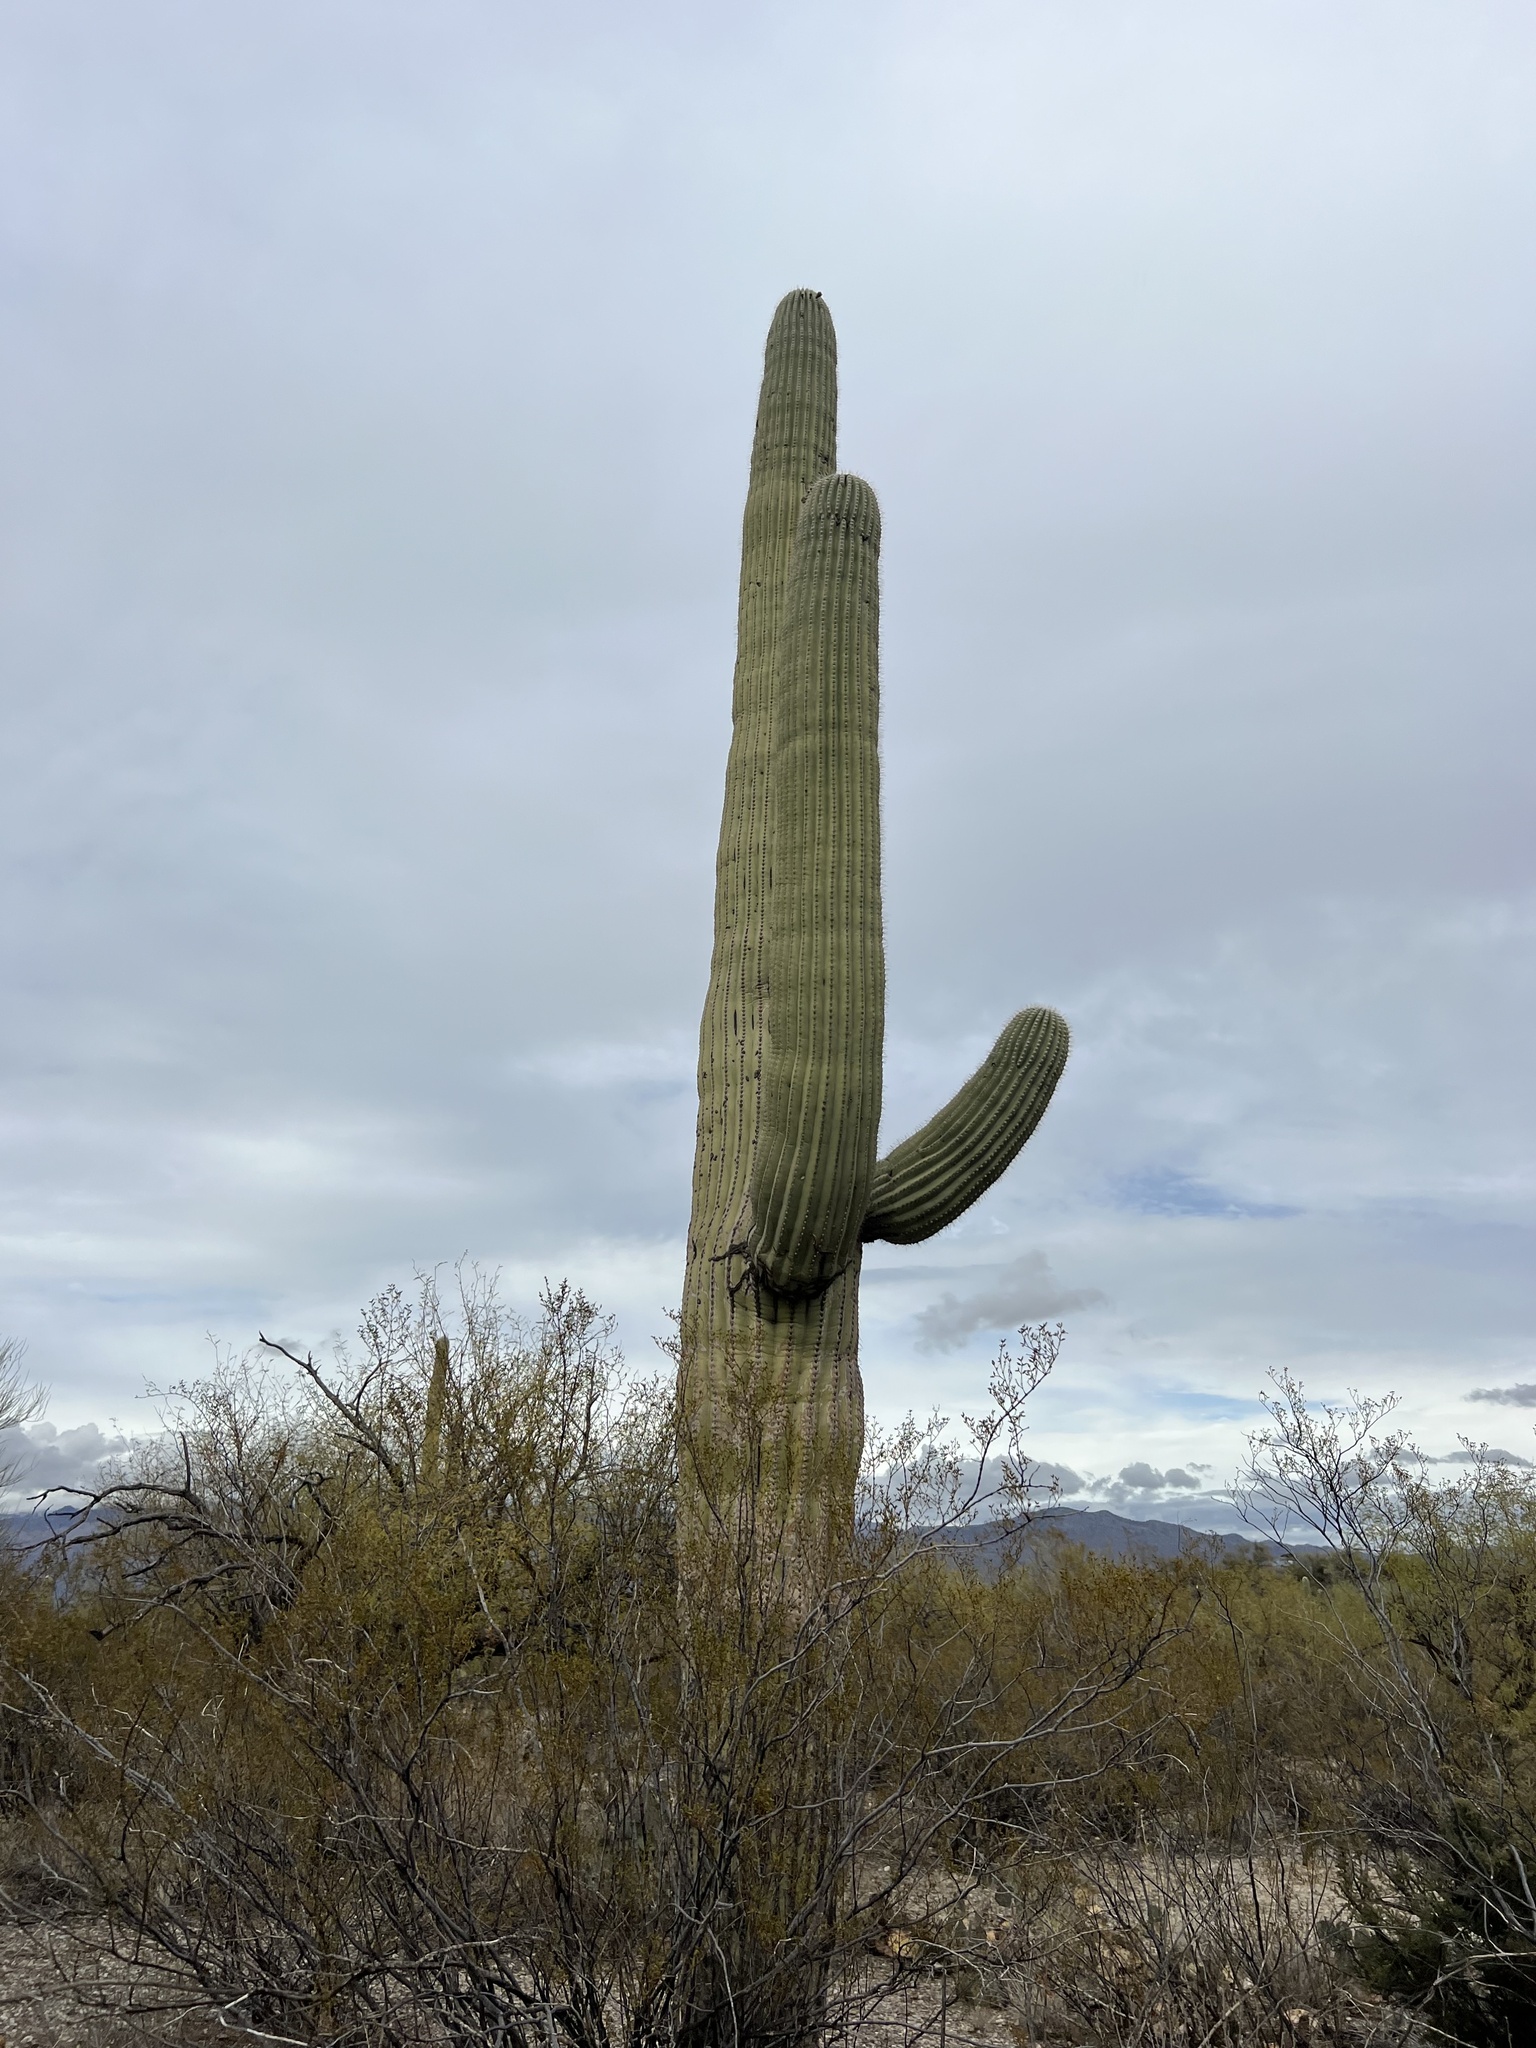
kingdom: Plantae
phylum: Tracheophyta
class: Magnoliopsida
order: Caryophyllales
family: Cactaceae
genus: Carnegiea
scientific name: Carnegiea gigantea
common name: Saguaro
